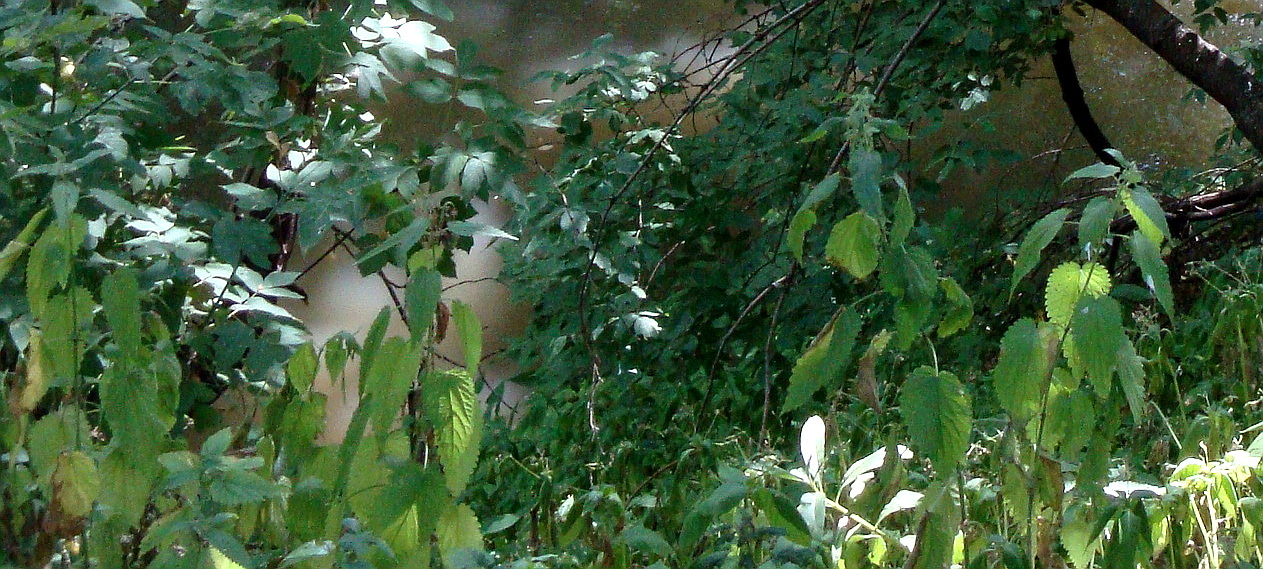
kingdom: Plantae
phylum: Tracheophyta
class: Magnoliopsida
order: Rosales
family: Urticaceae
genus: Urtica
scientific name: Urtica dioica
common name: Common nettle
